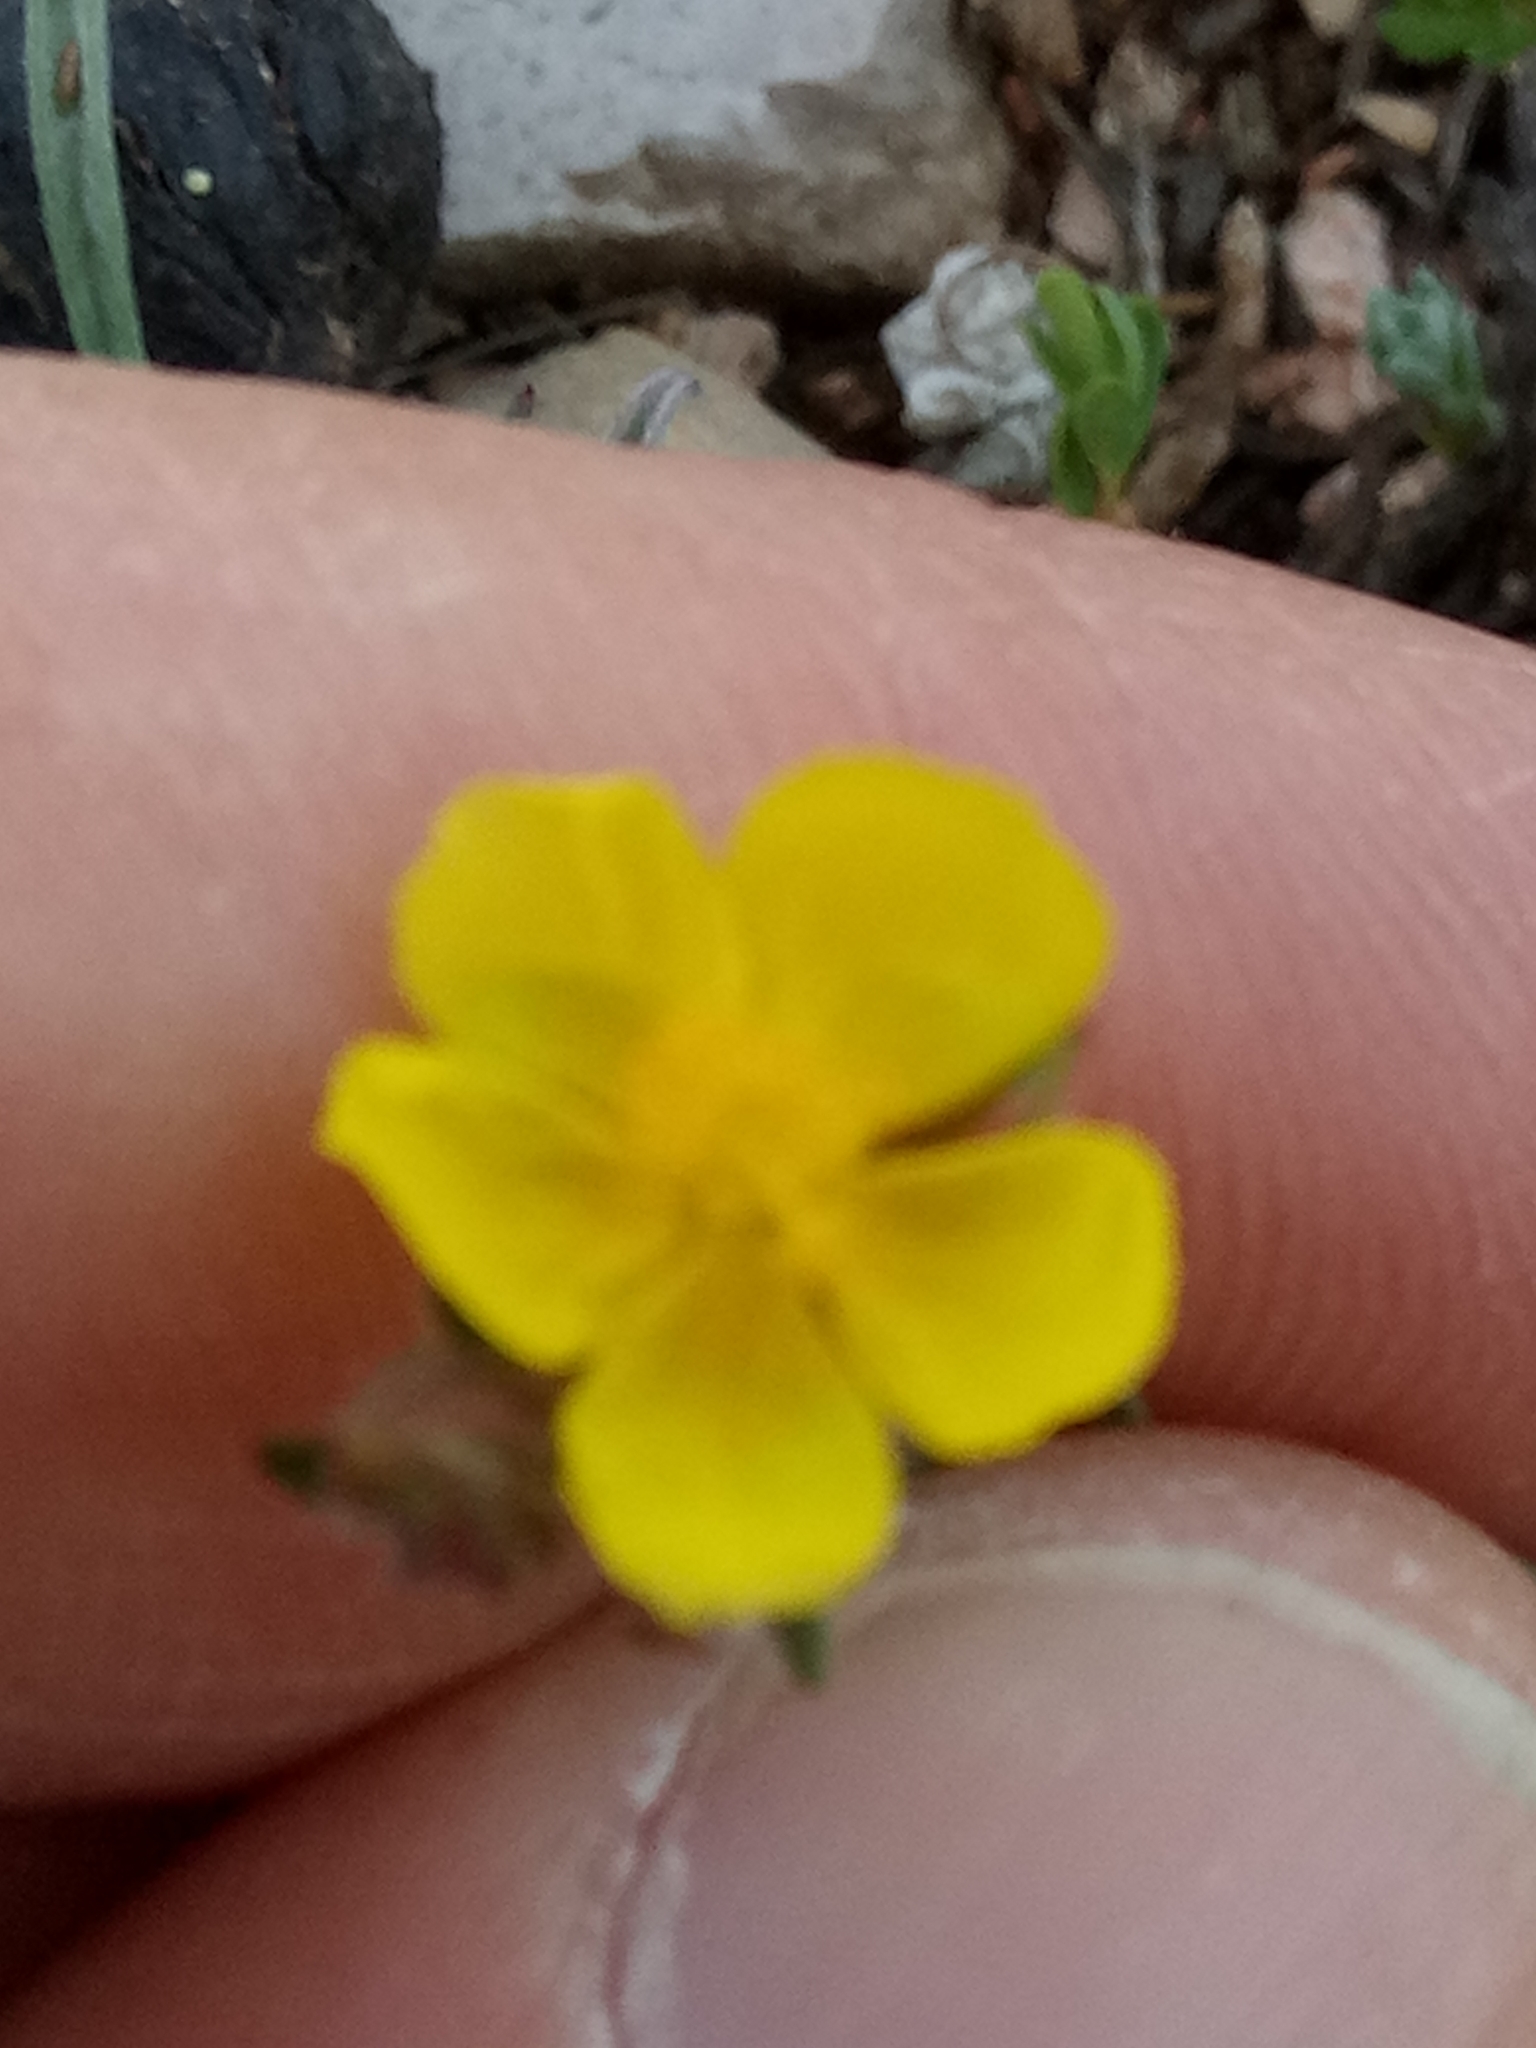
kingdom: Plantae
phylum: Tracheophyta
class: Magnoliopsida
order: Malvales
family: Cistaceae
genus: Fumana
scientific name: Fumana thymifolia
